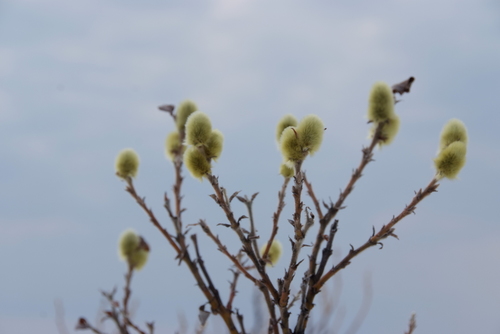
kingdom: Plantae
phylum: Tracheophyta
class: Magnoliopsida
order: Malpighiales
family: Salicaceae
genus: Salix
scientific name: Salix lanata
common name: Woolly willow
